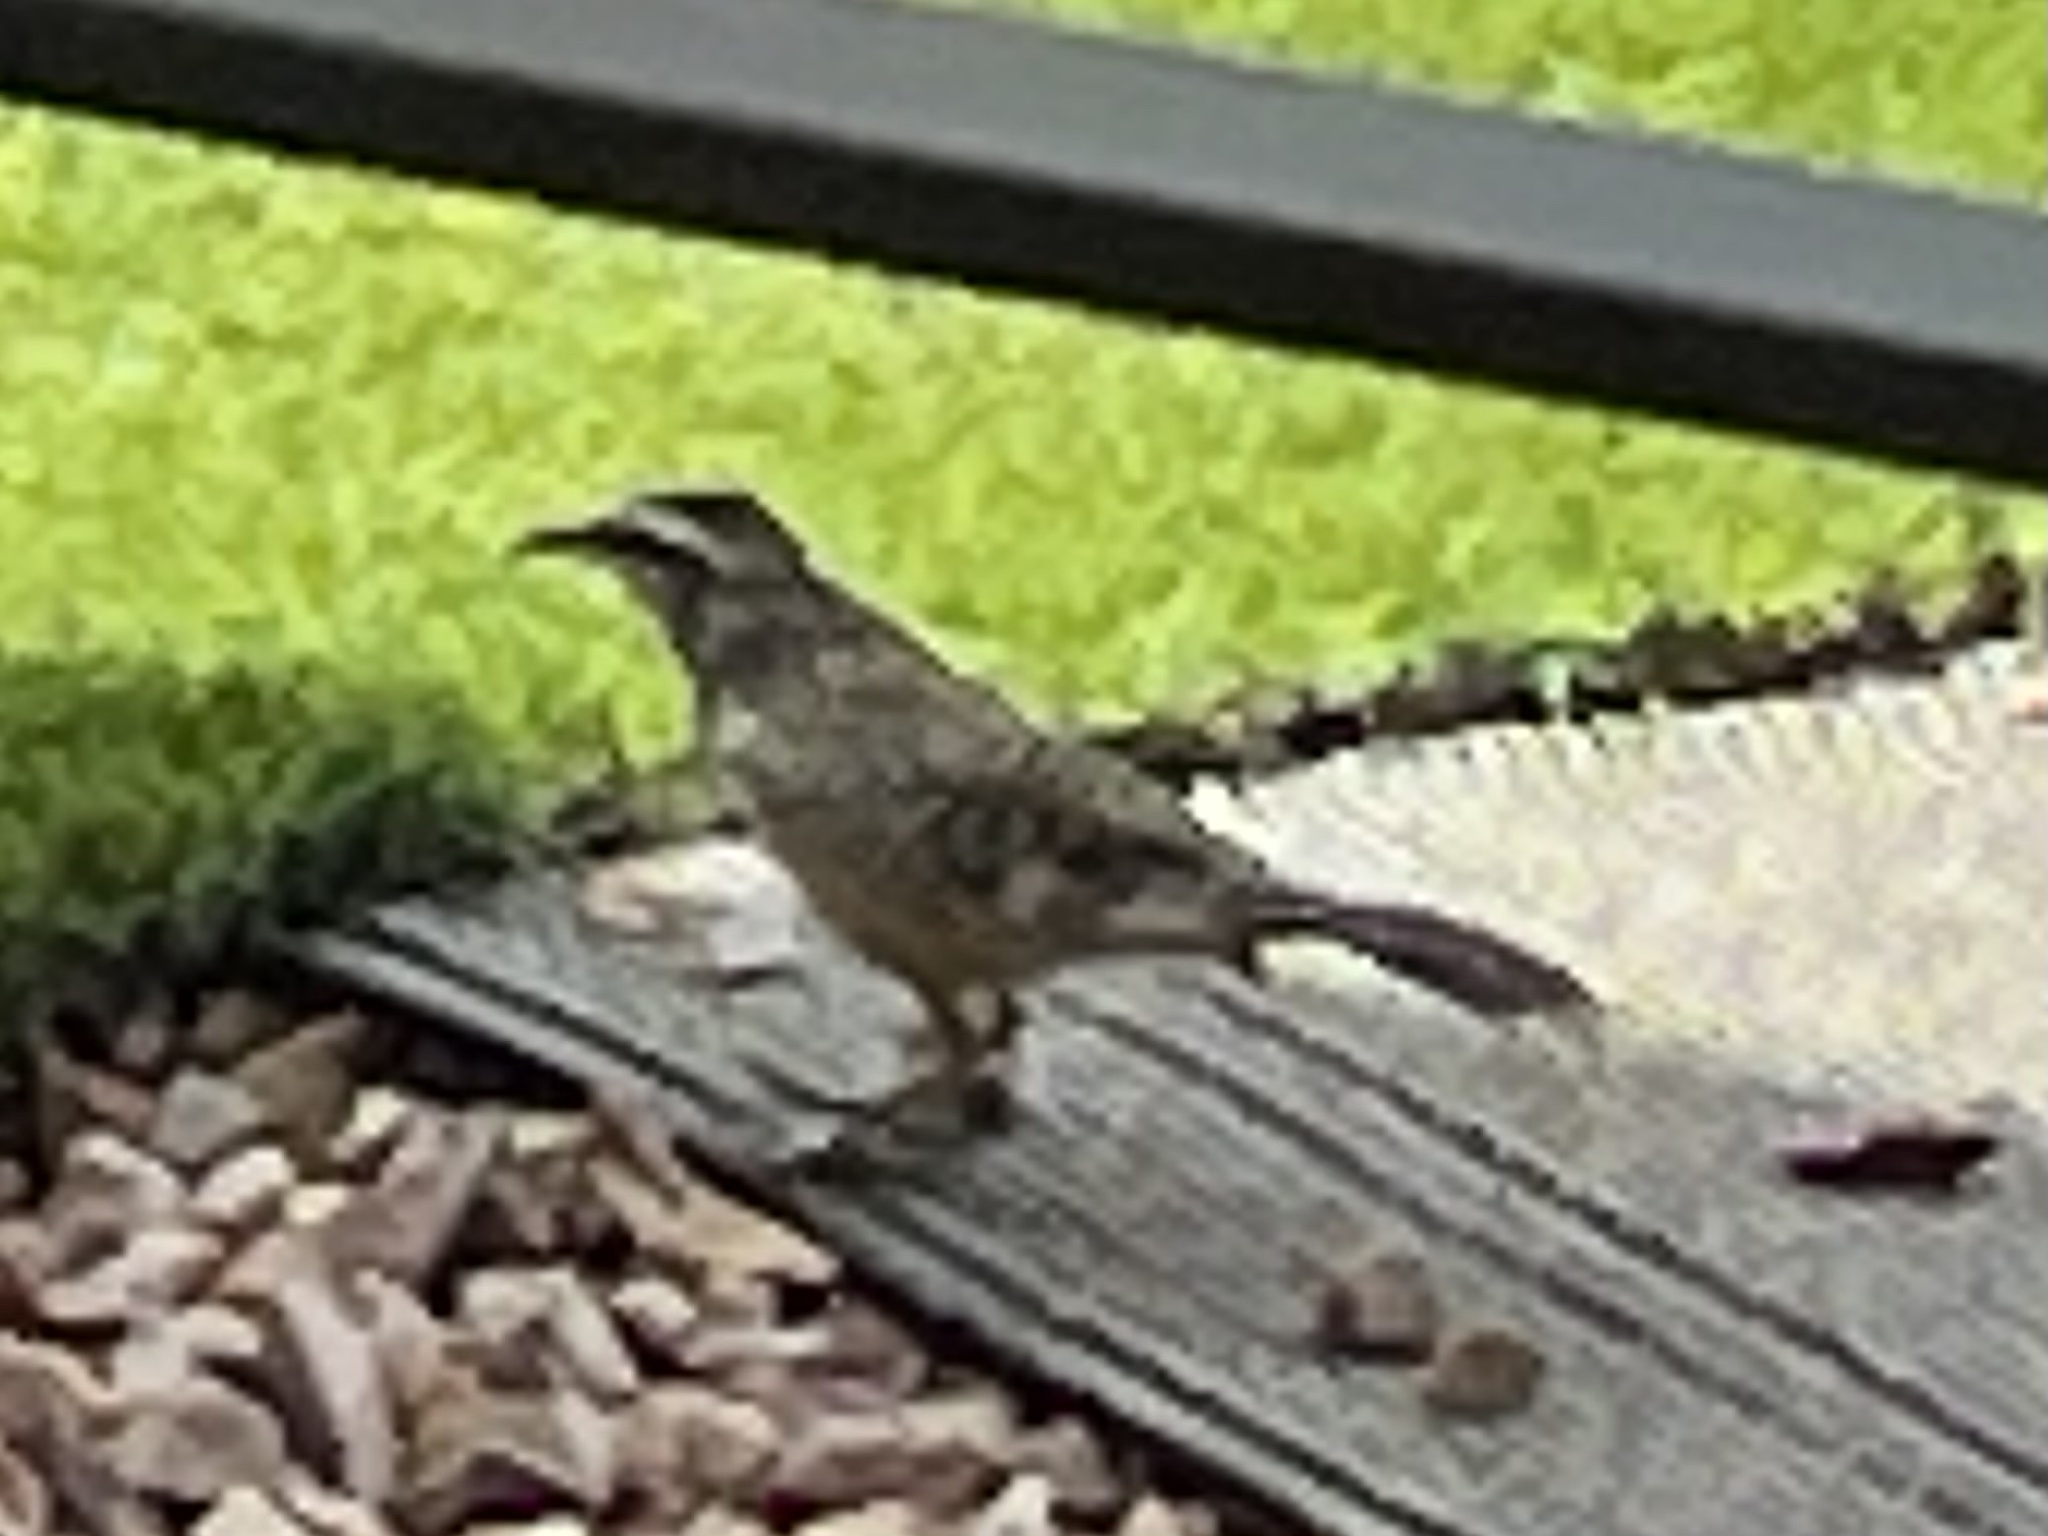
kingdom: Animalia
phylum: Chordata
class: Aves
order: Passeriformes
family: Troglodytidae
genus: Campylorhynchus
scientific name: Campylorhynchus brunneicapillus
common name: Cactus wren
